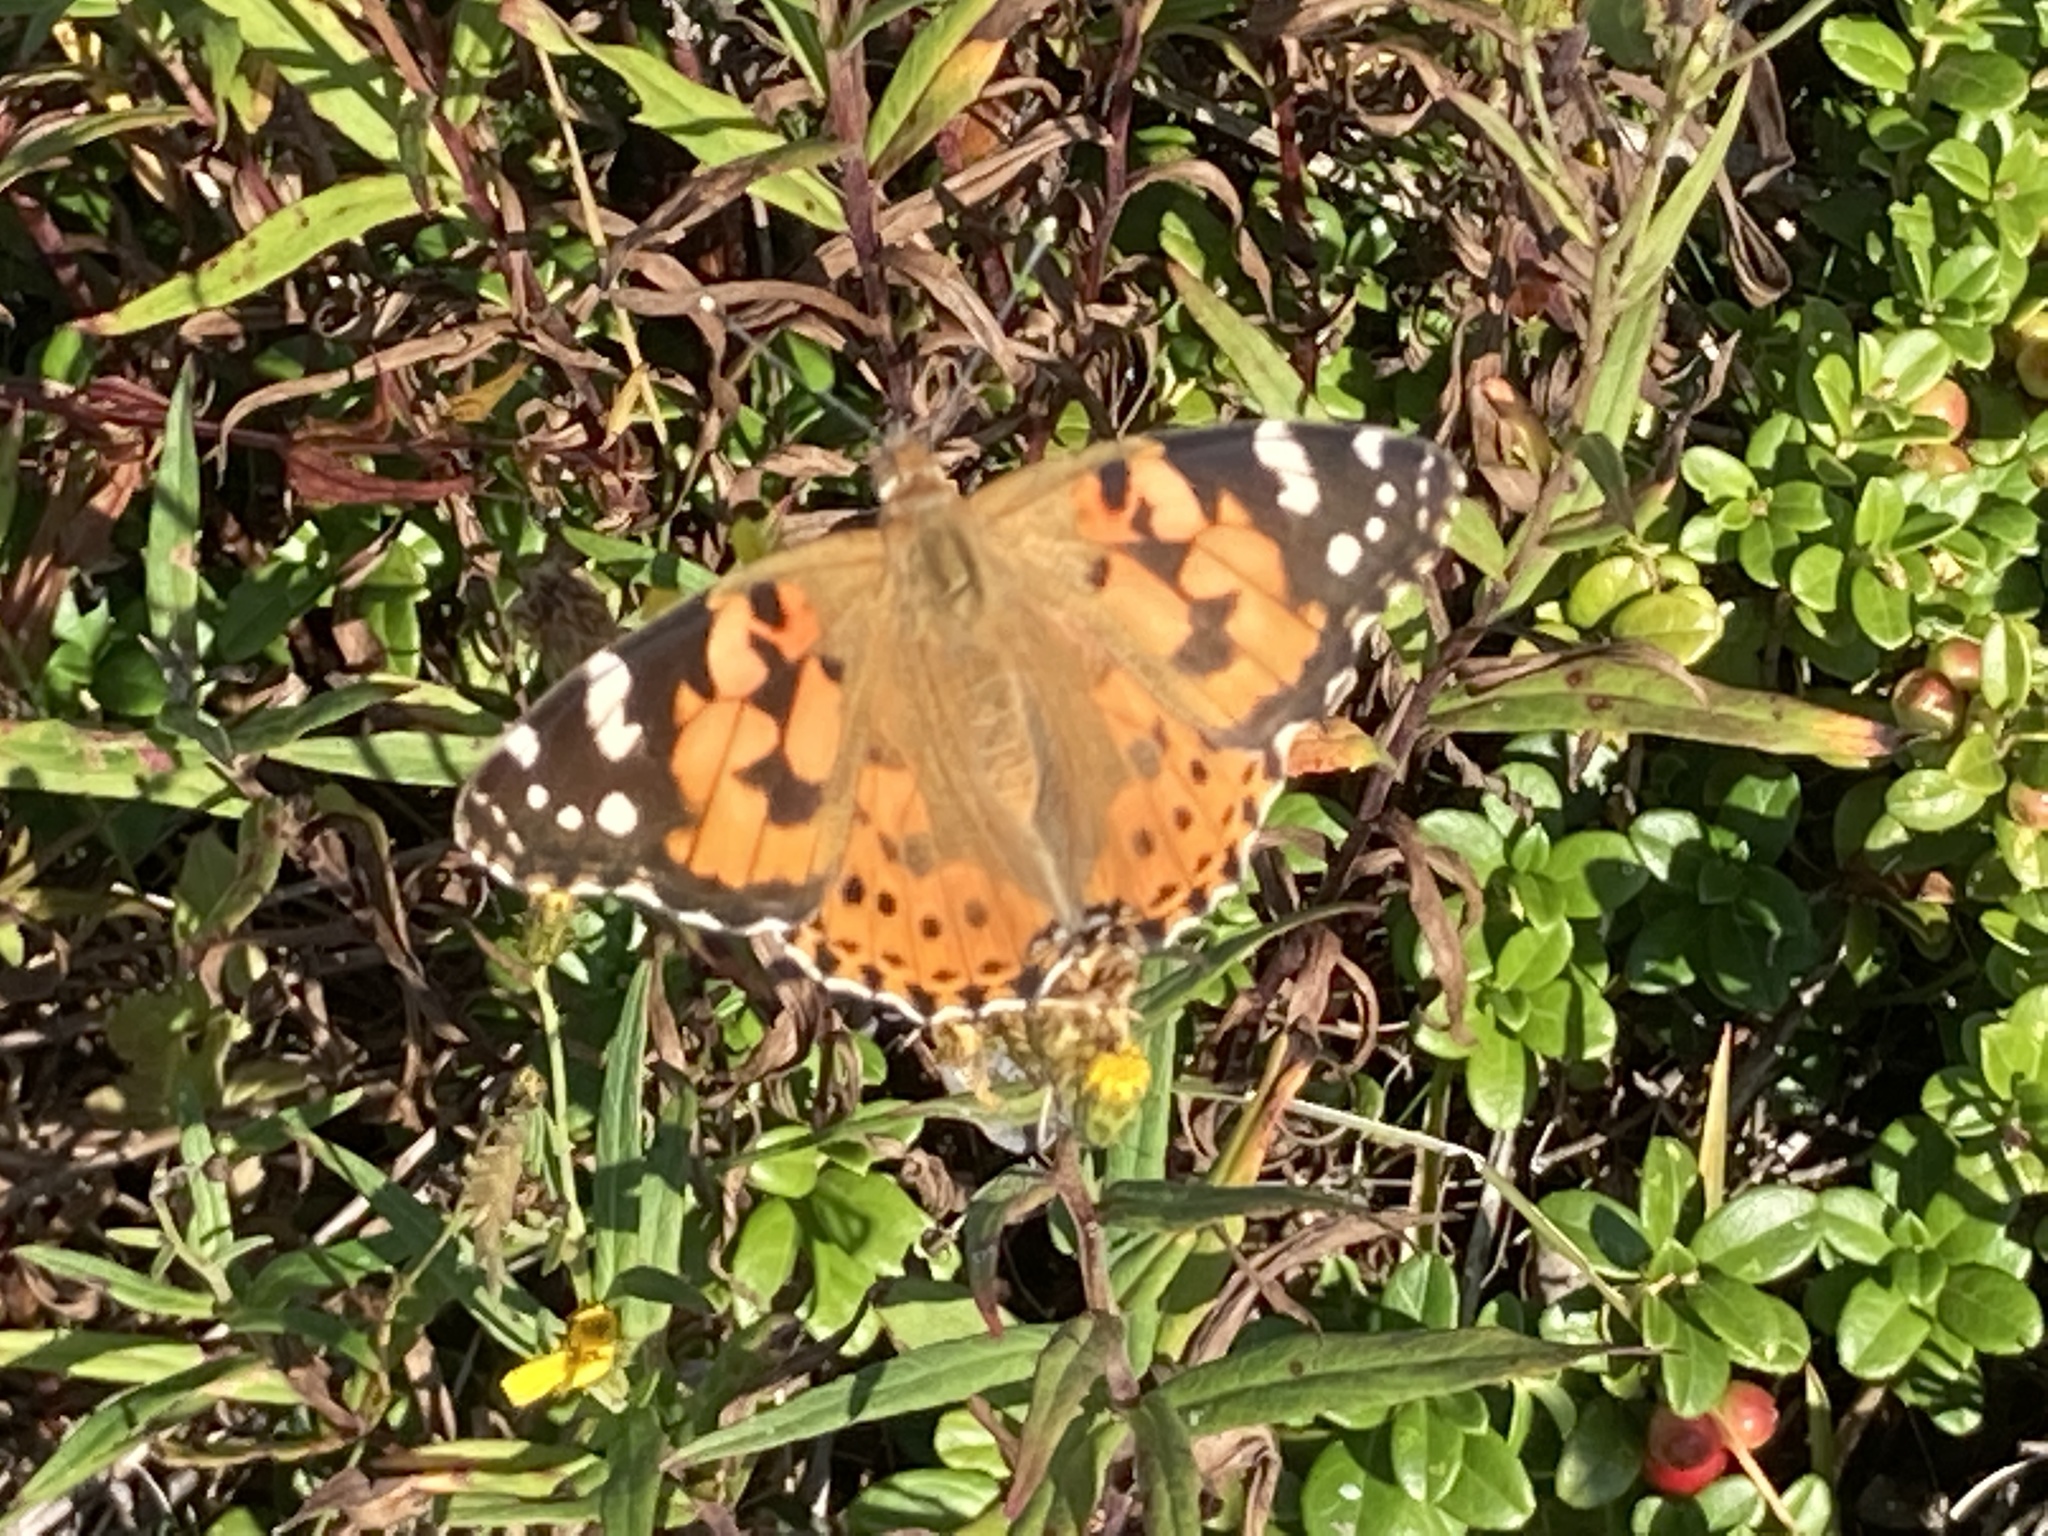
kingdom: Animalia
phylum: Arthropoda
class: Insecta
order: Lepidoptera
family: Nymphalidae
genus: Vanessa
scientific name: Vanessa cardui
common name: Painted lady
